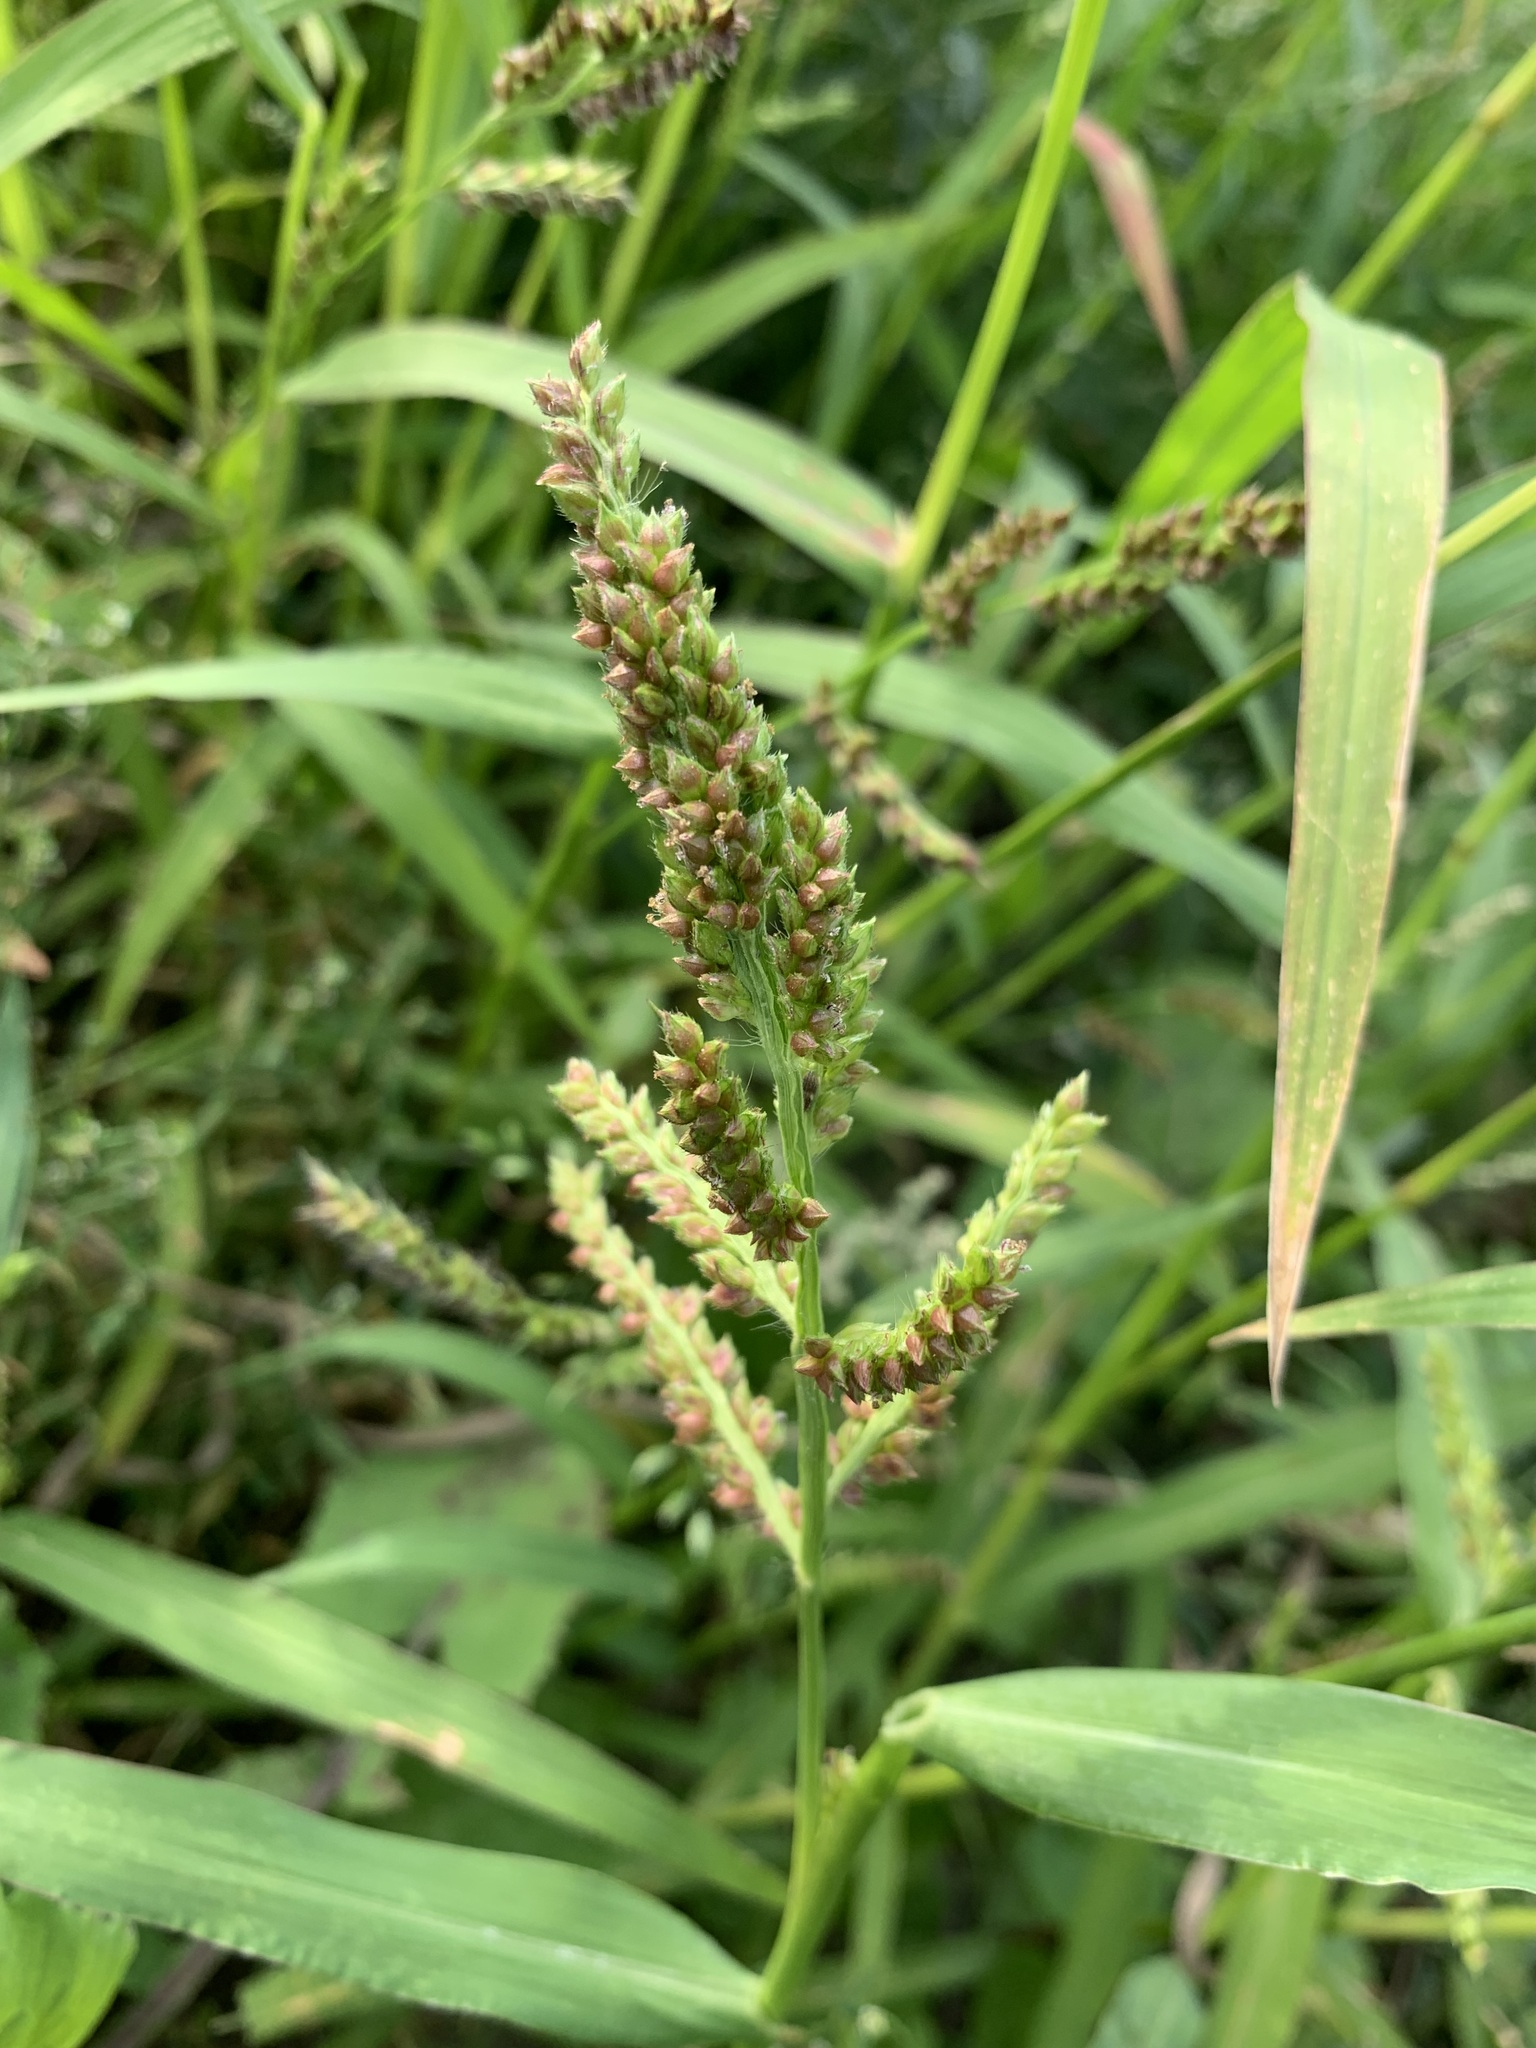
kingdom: Plantae
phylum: Tracheophyta
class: Liliopsida
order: Poales
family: Poaceae
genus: Echinochloa
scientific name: Echinochloa crus-galli
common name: Cockspur
